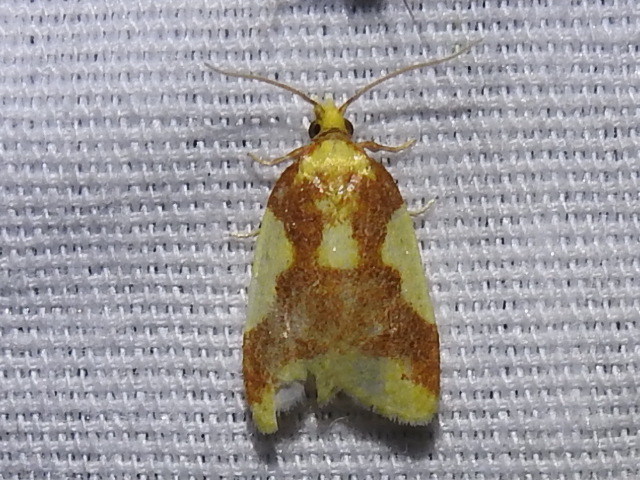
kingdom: Animalia
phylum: Arthropoda
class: Insecta
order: Lepidoptera
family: Tortricidae
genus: Sparganothis
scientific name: Sparganothis pulcherrimana
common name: Beautiful sparganothis
